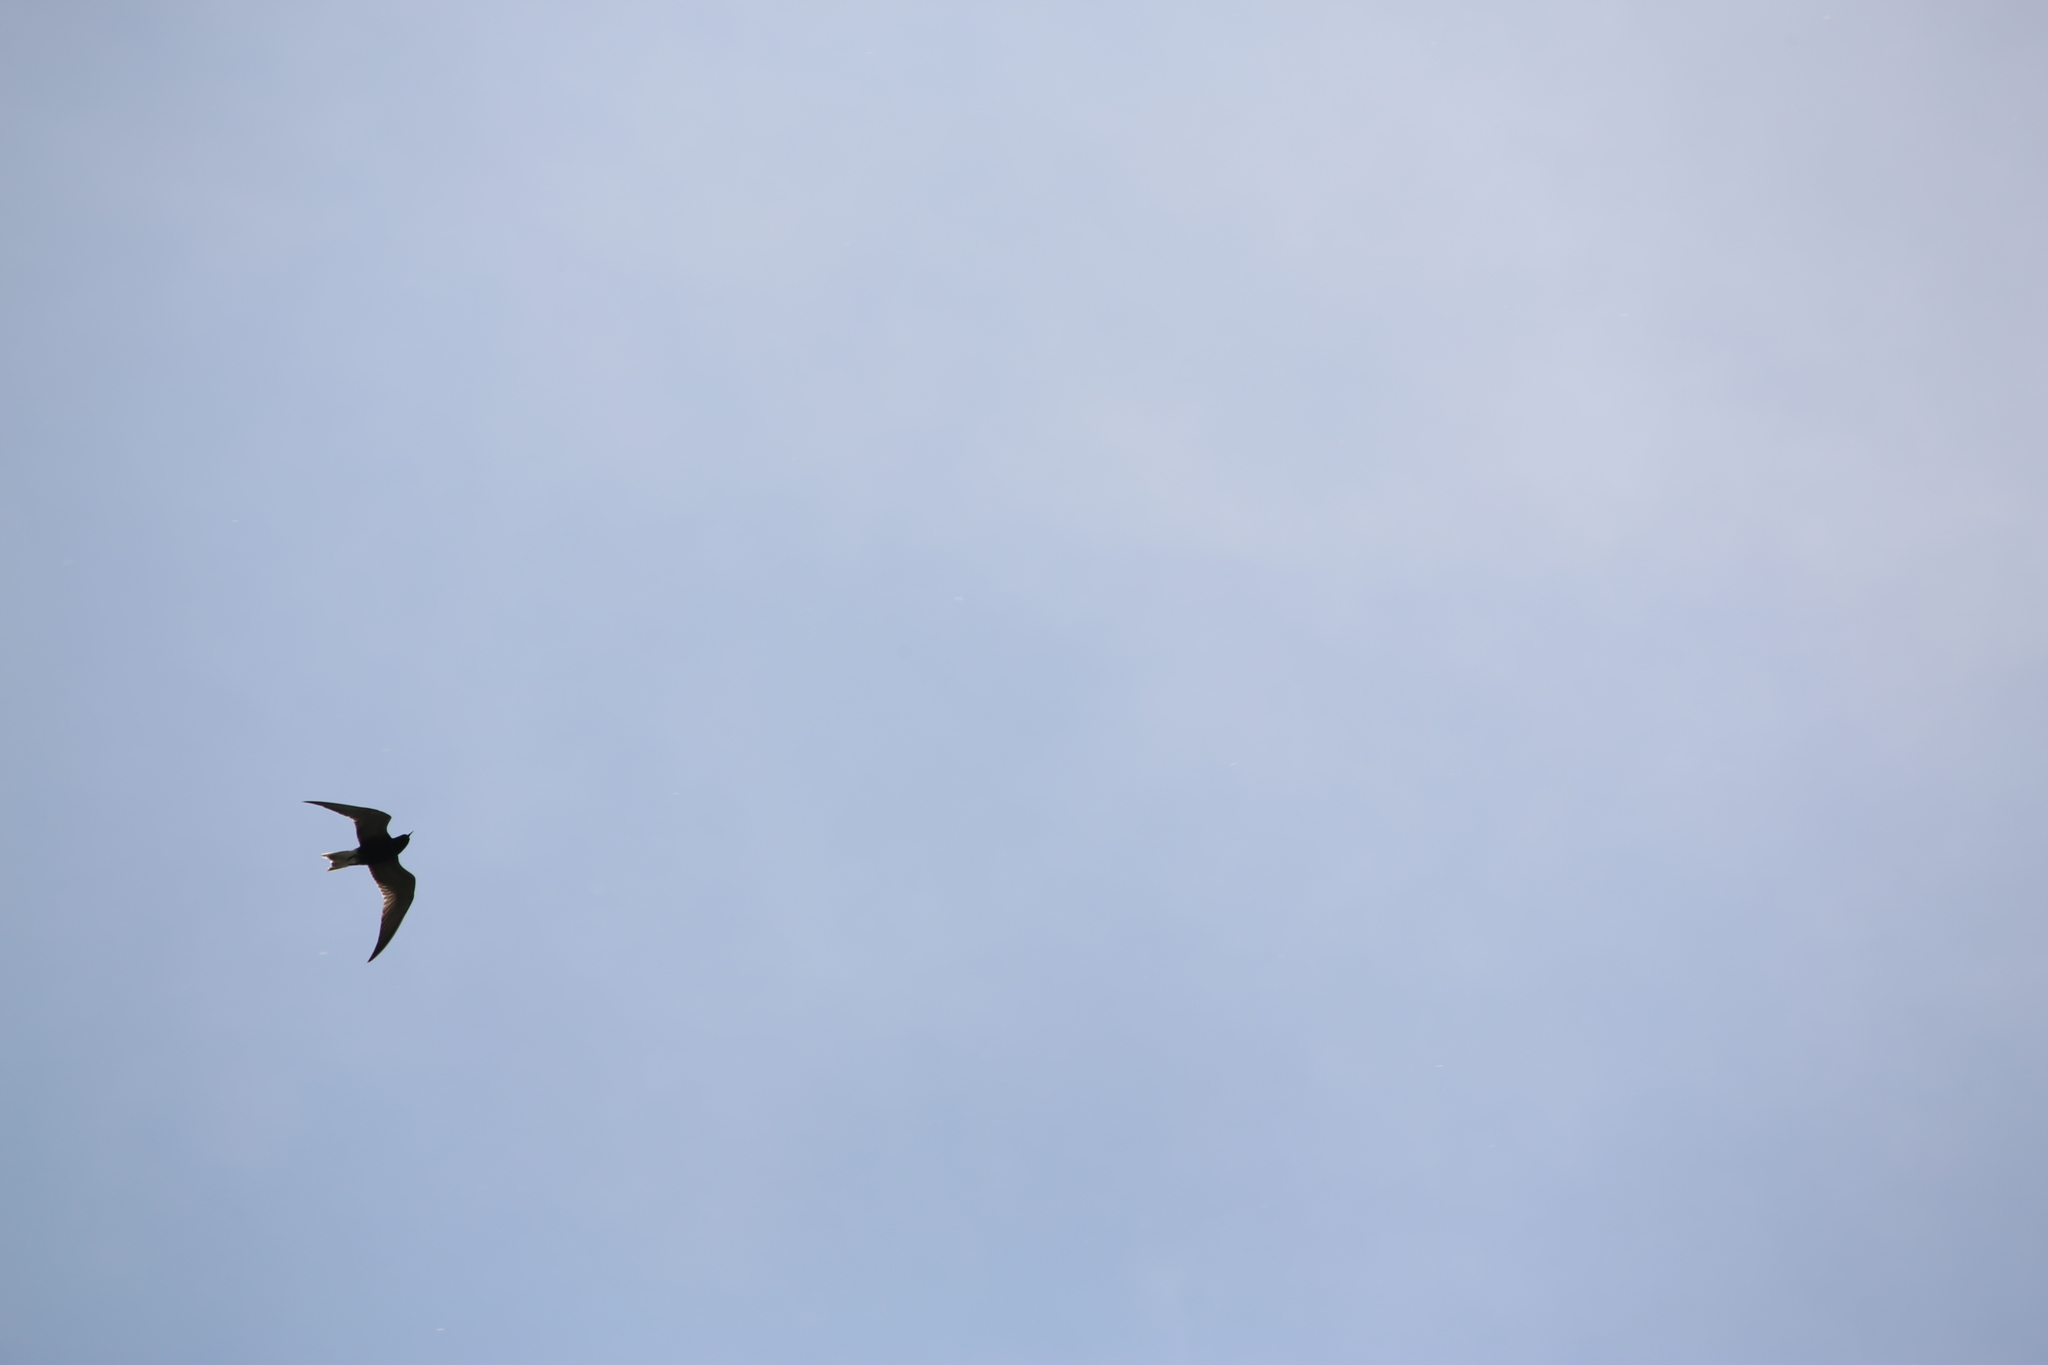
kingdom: Animalia
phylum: Chordata
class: Aves
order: Charadriiformes
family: Laridae
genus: Chlidonias
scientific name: Chlidonias niger
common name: Black tern
